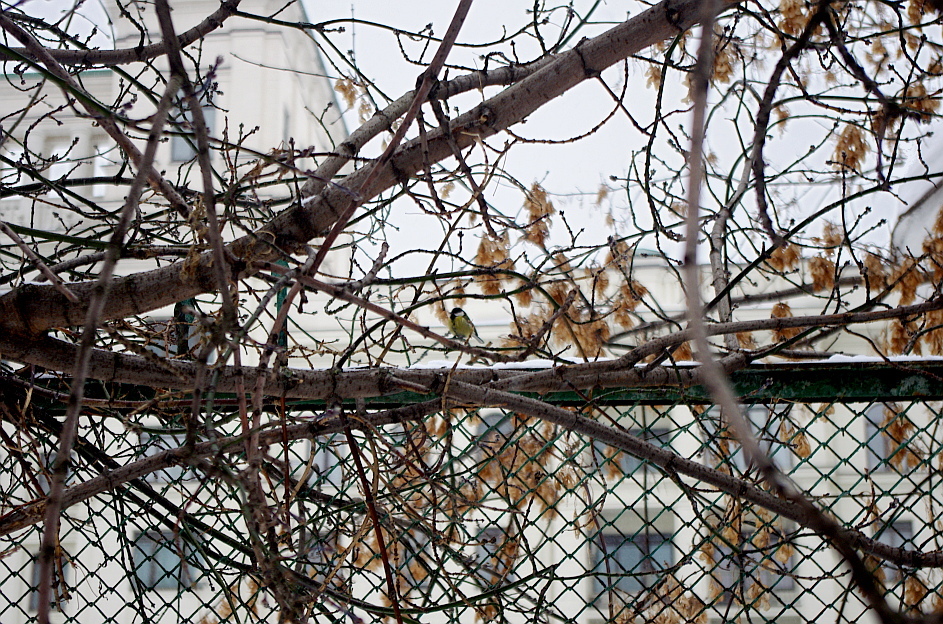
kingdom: Plantae
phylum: Tracheophyta
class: Magnoliopsida
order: Sapindales
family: Sapindaceae
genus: Acer
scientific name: Acer negundo
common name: Ashleaf maple
